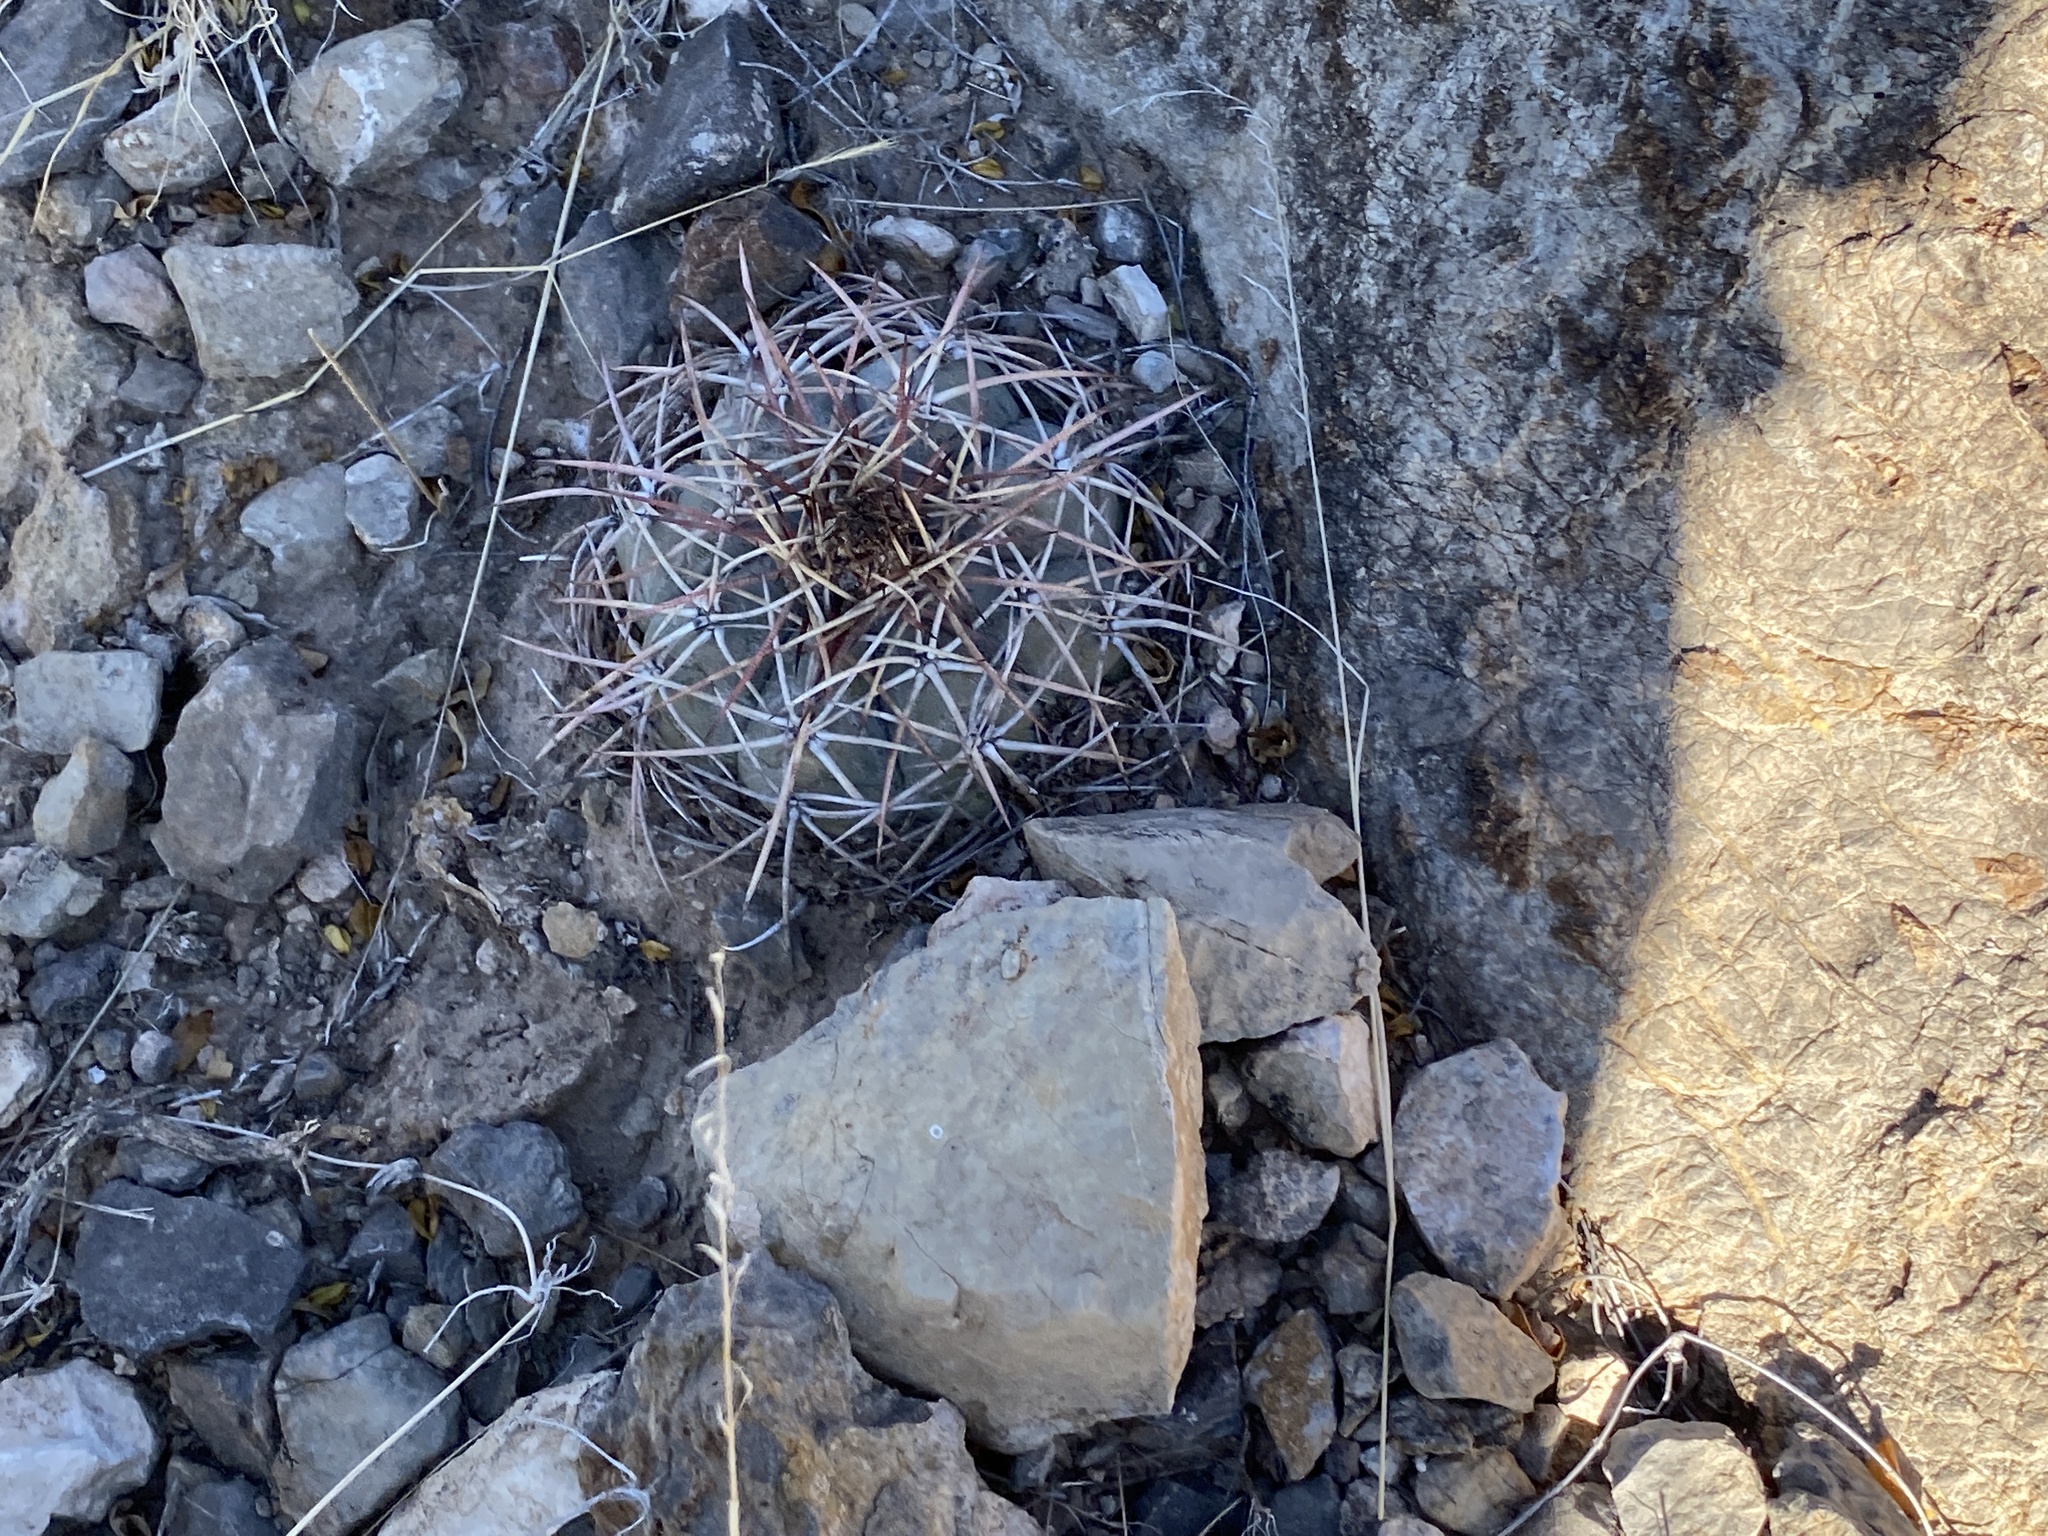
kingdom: Plantae
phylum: Tracheophyta
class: Magnoliopsida
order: Caryophyllales
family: Cactaceae
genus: Echinocactus
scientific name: Echinocactus horizonthalonius
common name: Devilshead
